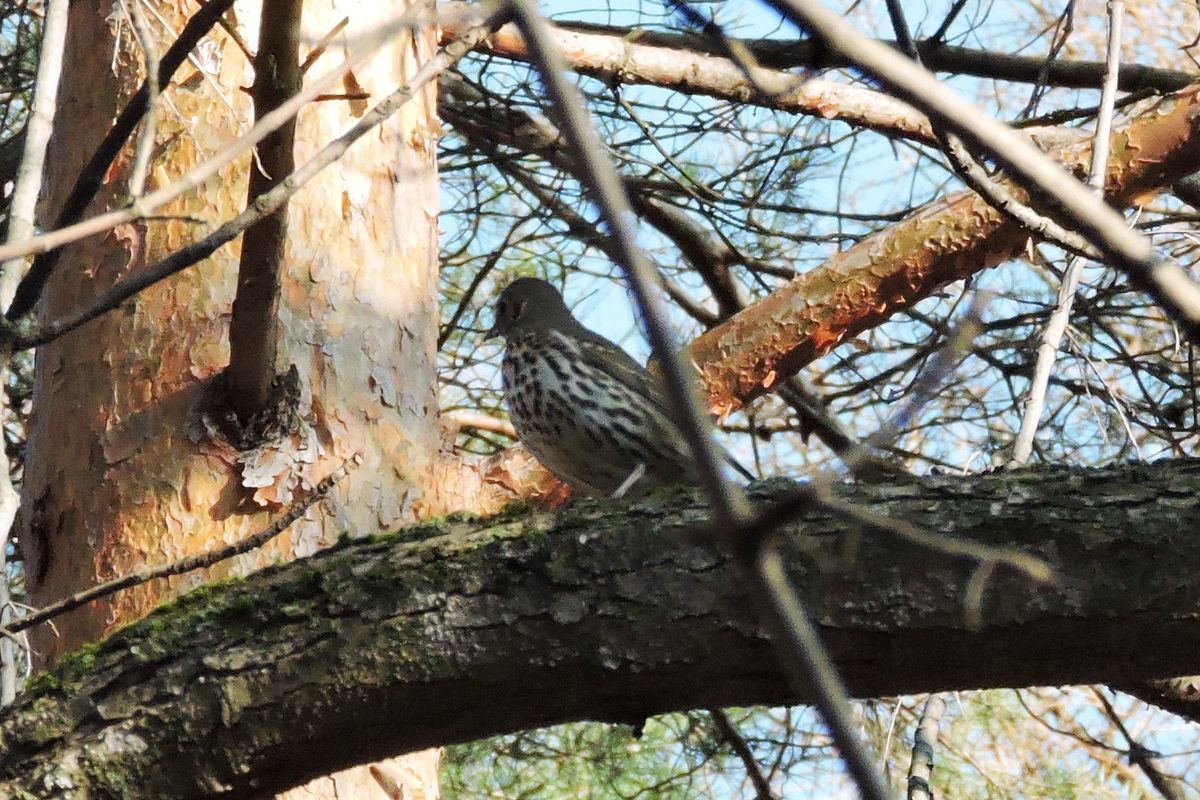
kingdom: Animalia
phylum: Chordata
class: Aves
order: Passeriformes
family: Turdidae
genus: Turdus
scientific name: Turdus philomelos
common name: Song thrush
